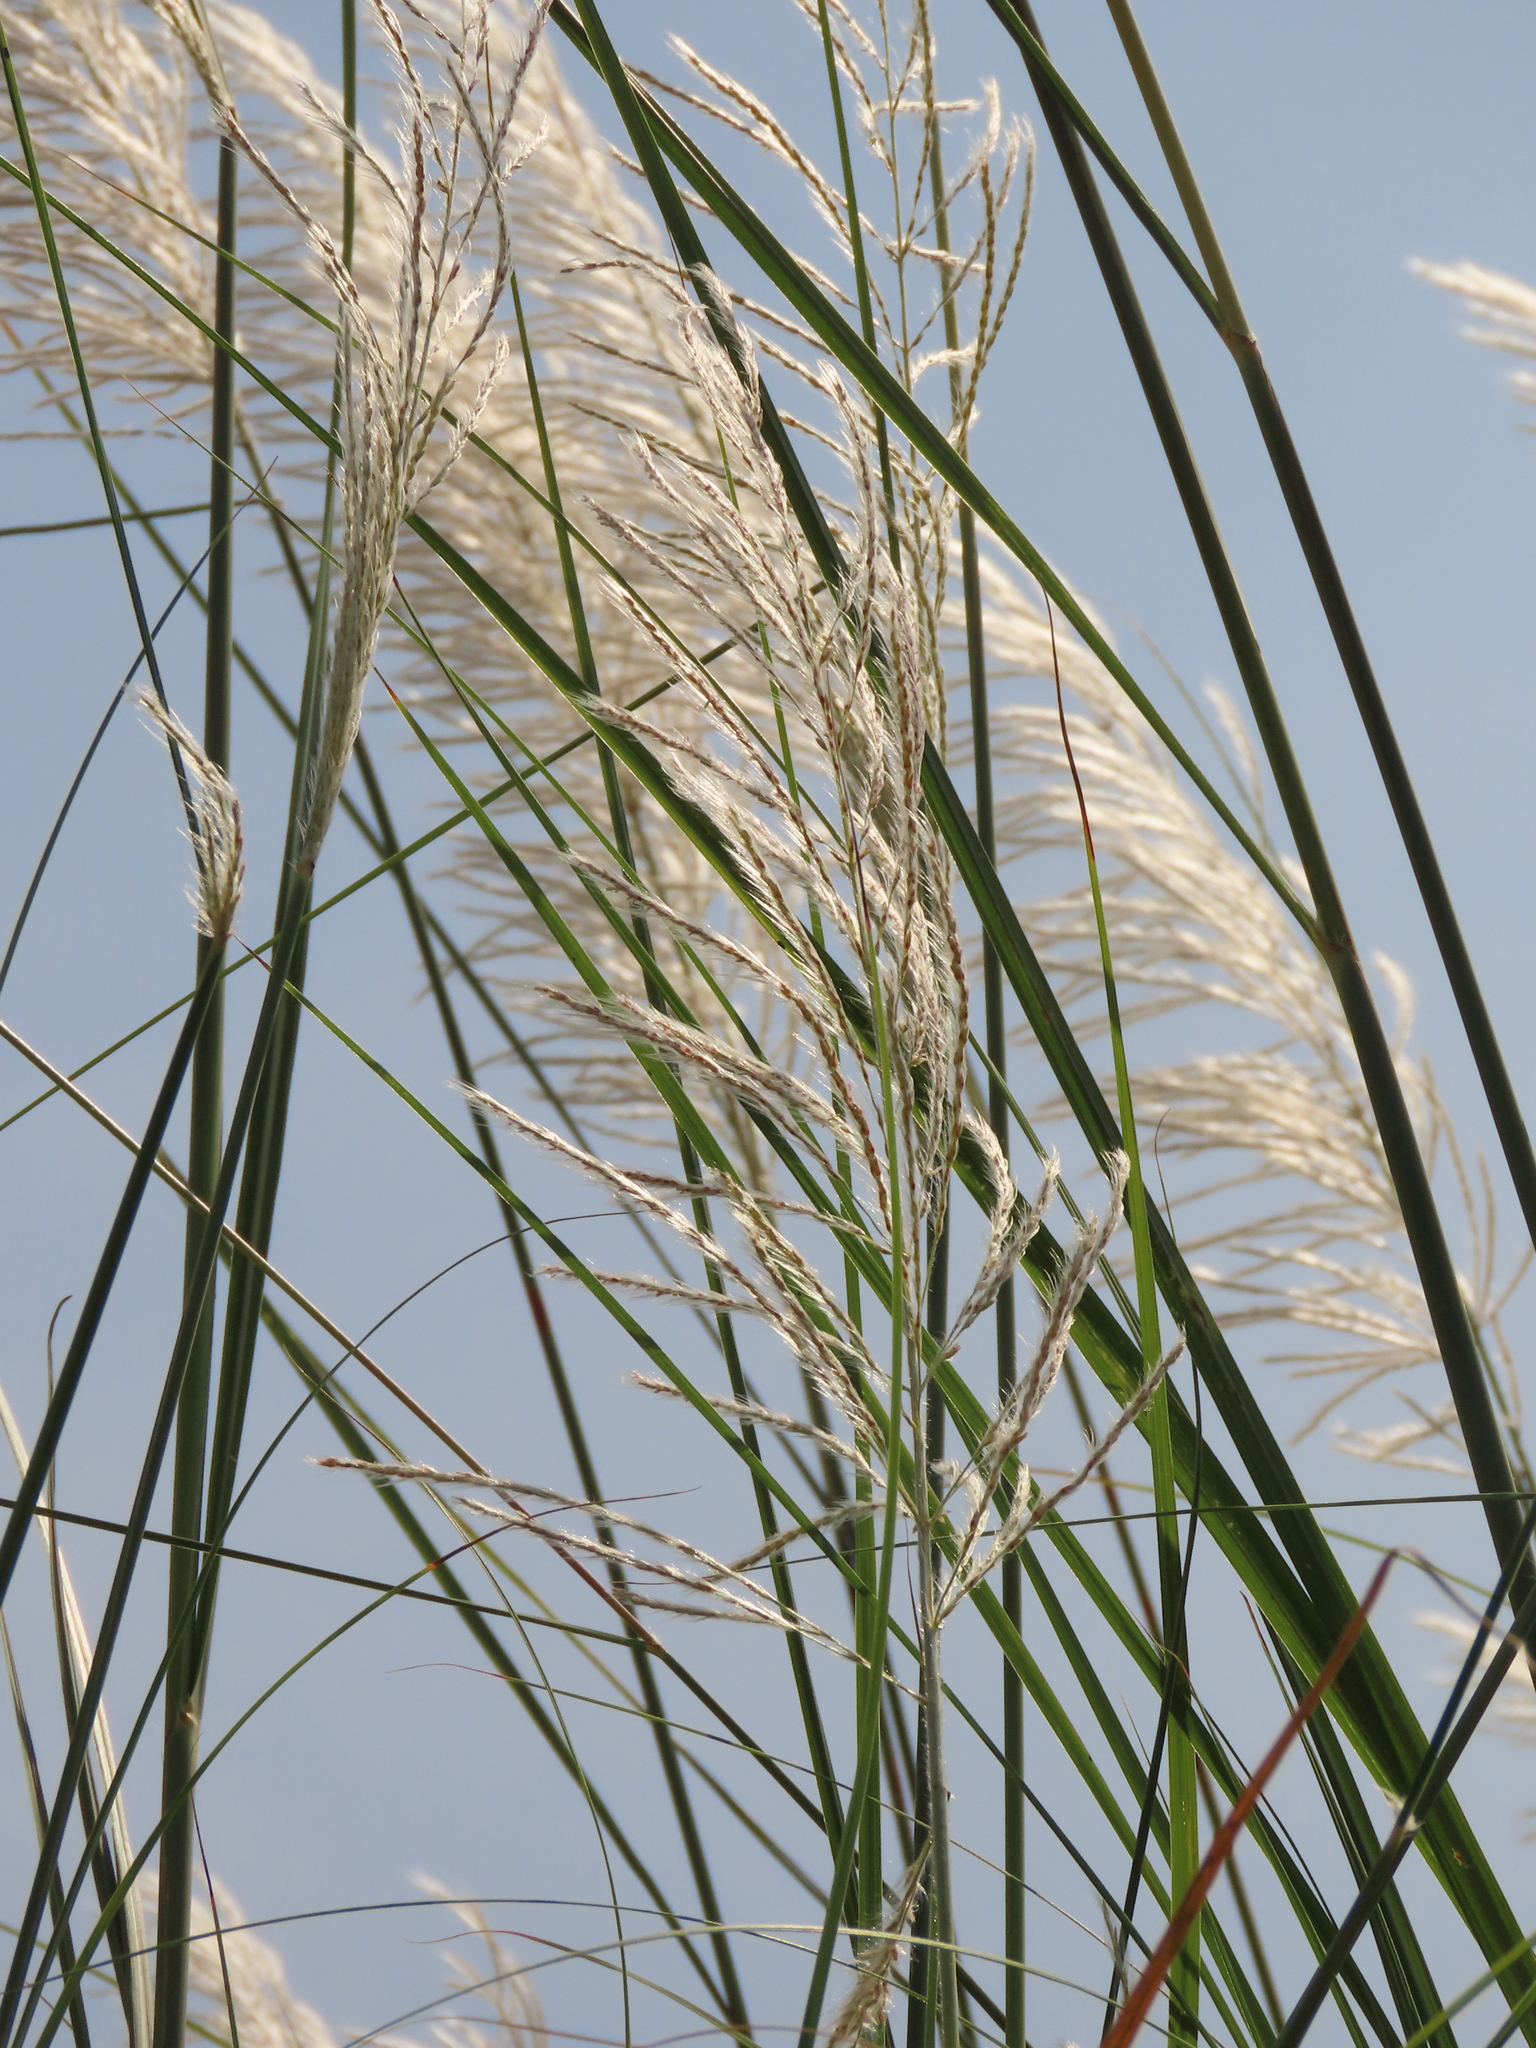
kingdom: Plantae
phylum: Tracheophyta
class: Liliopsida
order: Poales
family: Poaceae
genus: Saccharum
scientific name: Saccharum spontaneum
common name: Wild sugarcane
